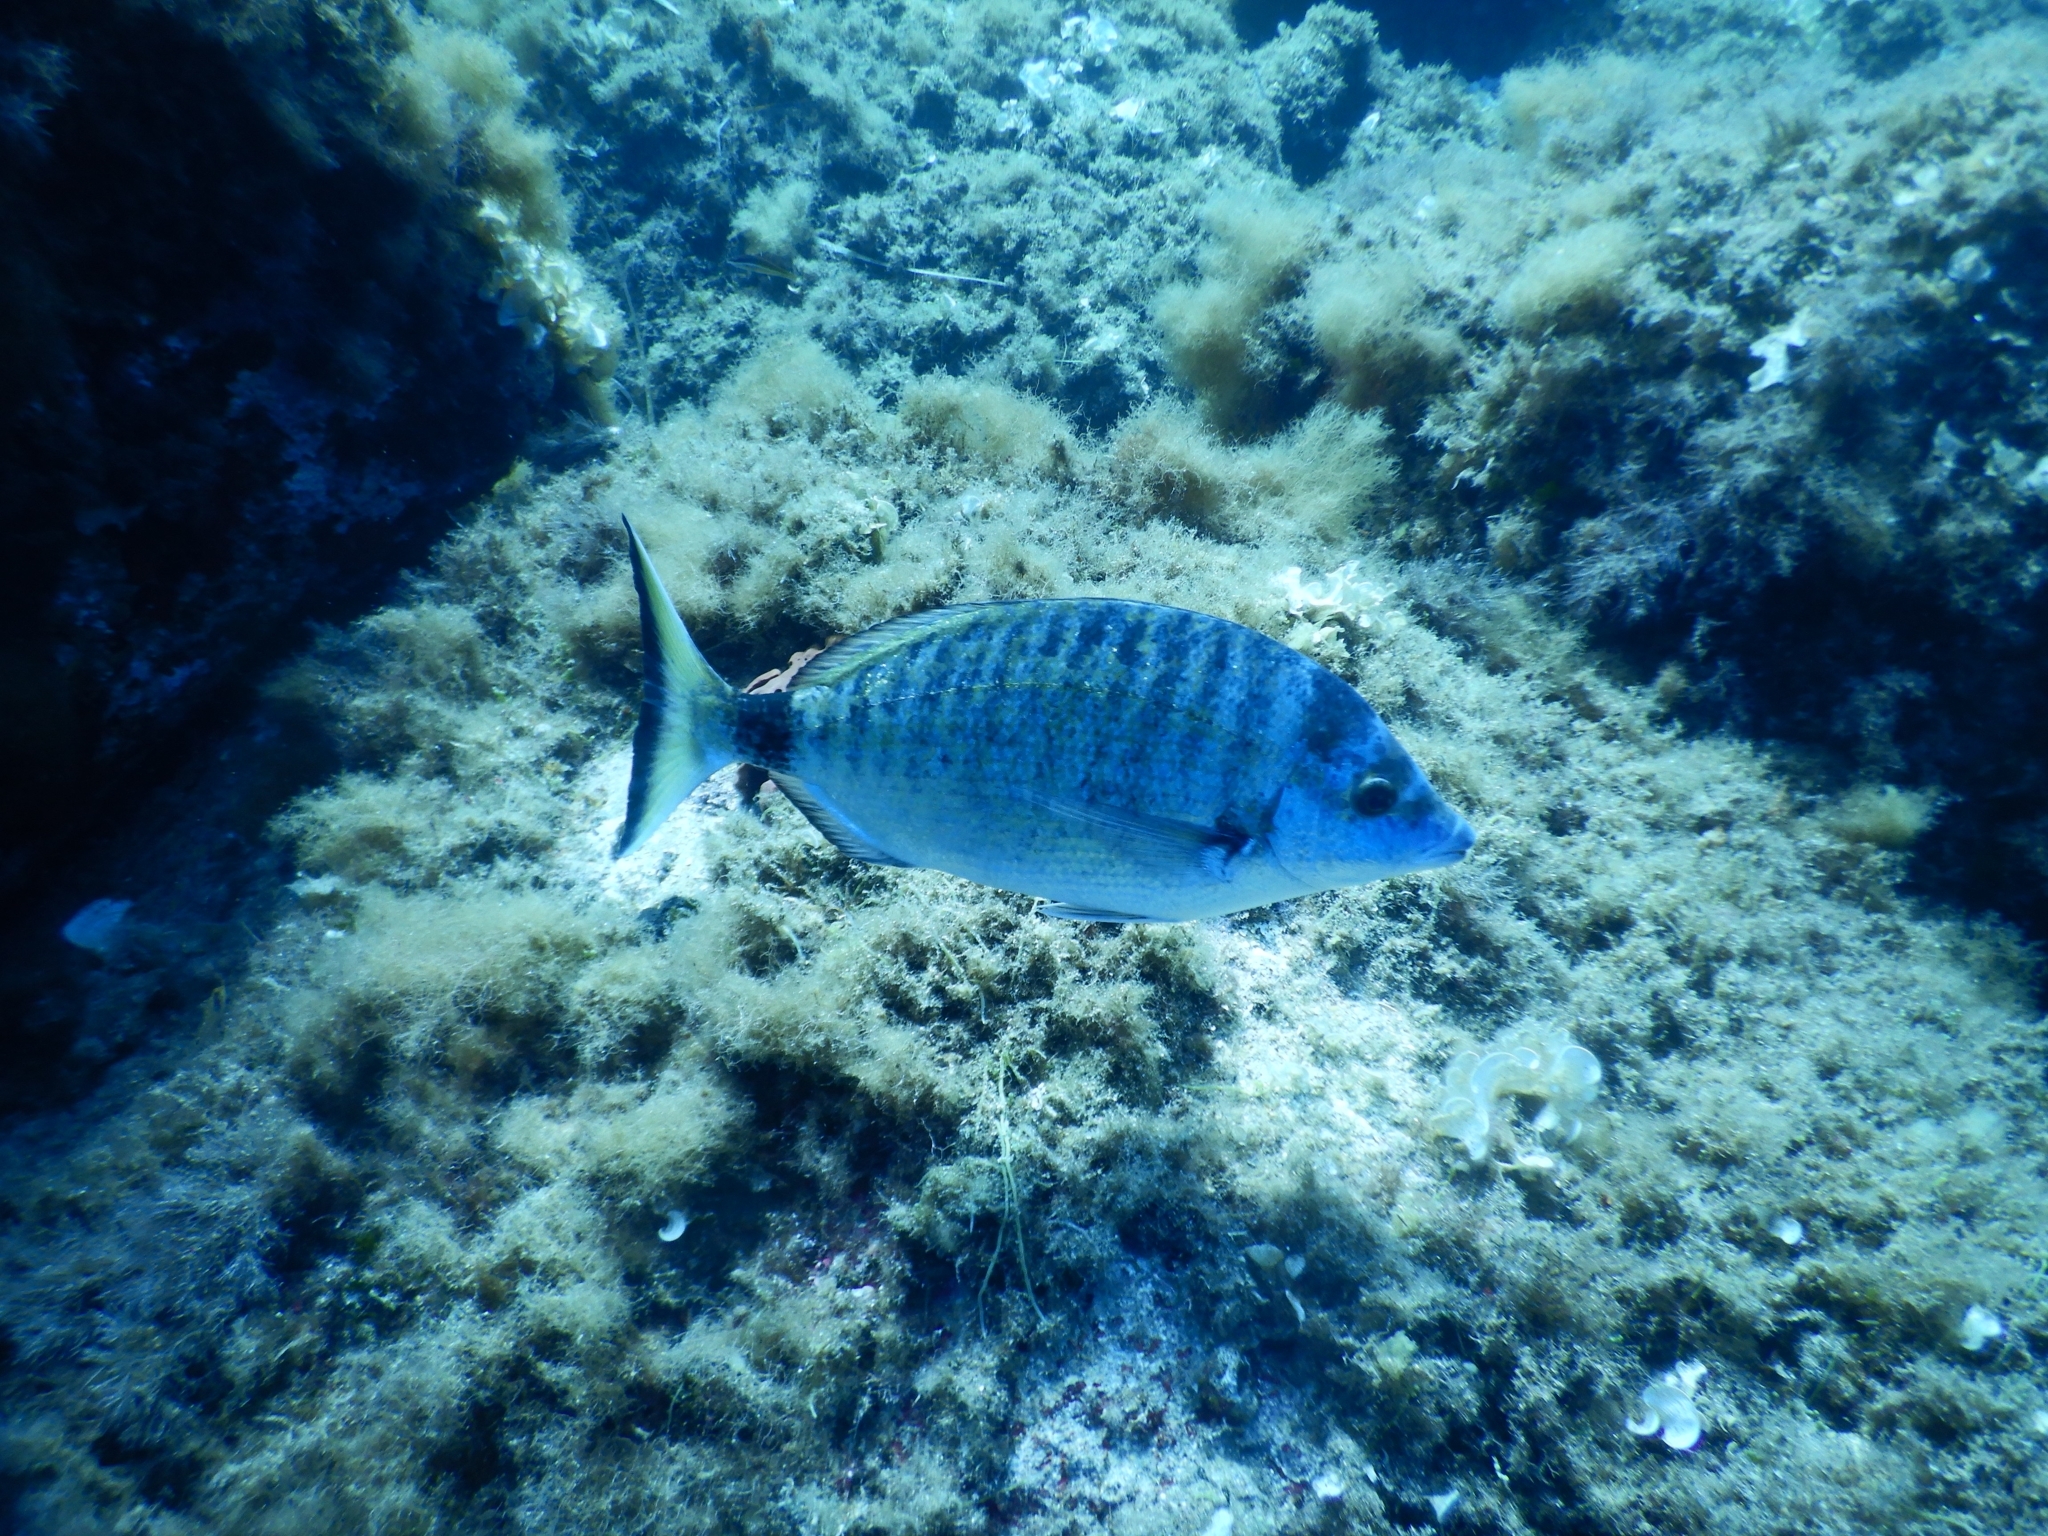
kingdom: Animalia
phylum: Chordata
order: Perciformes
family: Sparidae
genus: Diplodus
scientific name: Diplodus puntazzo
